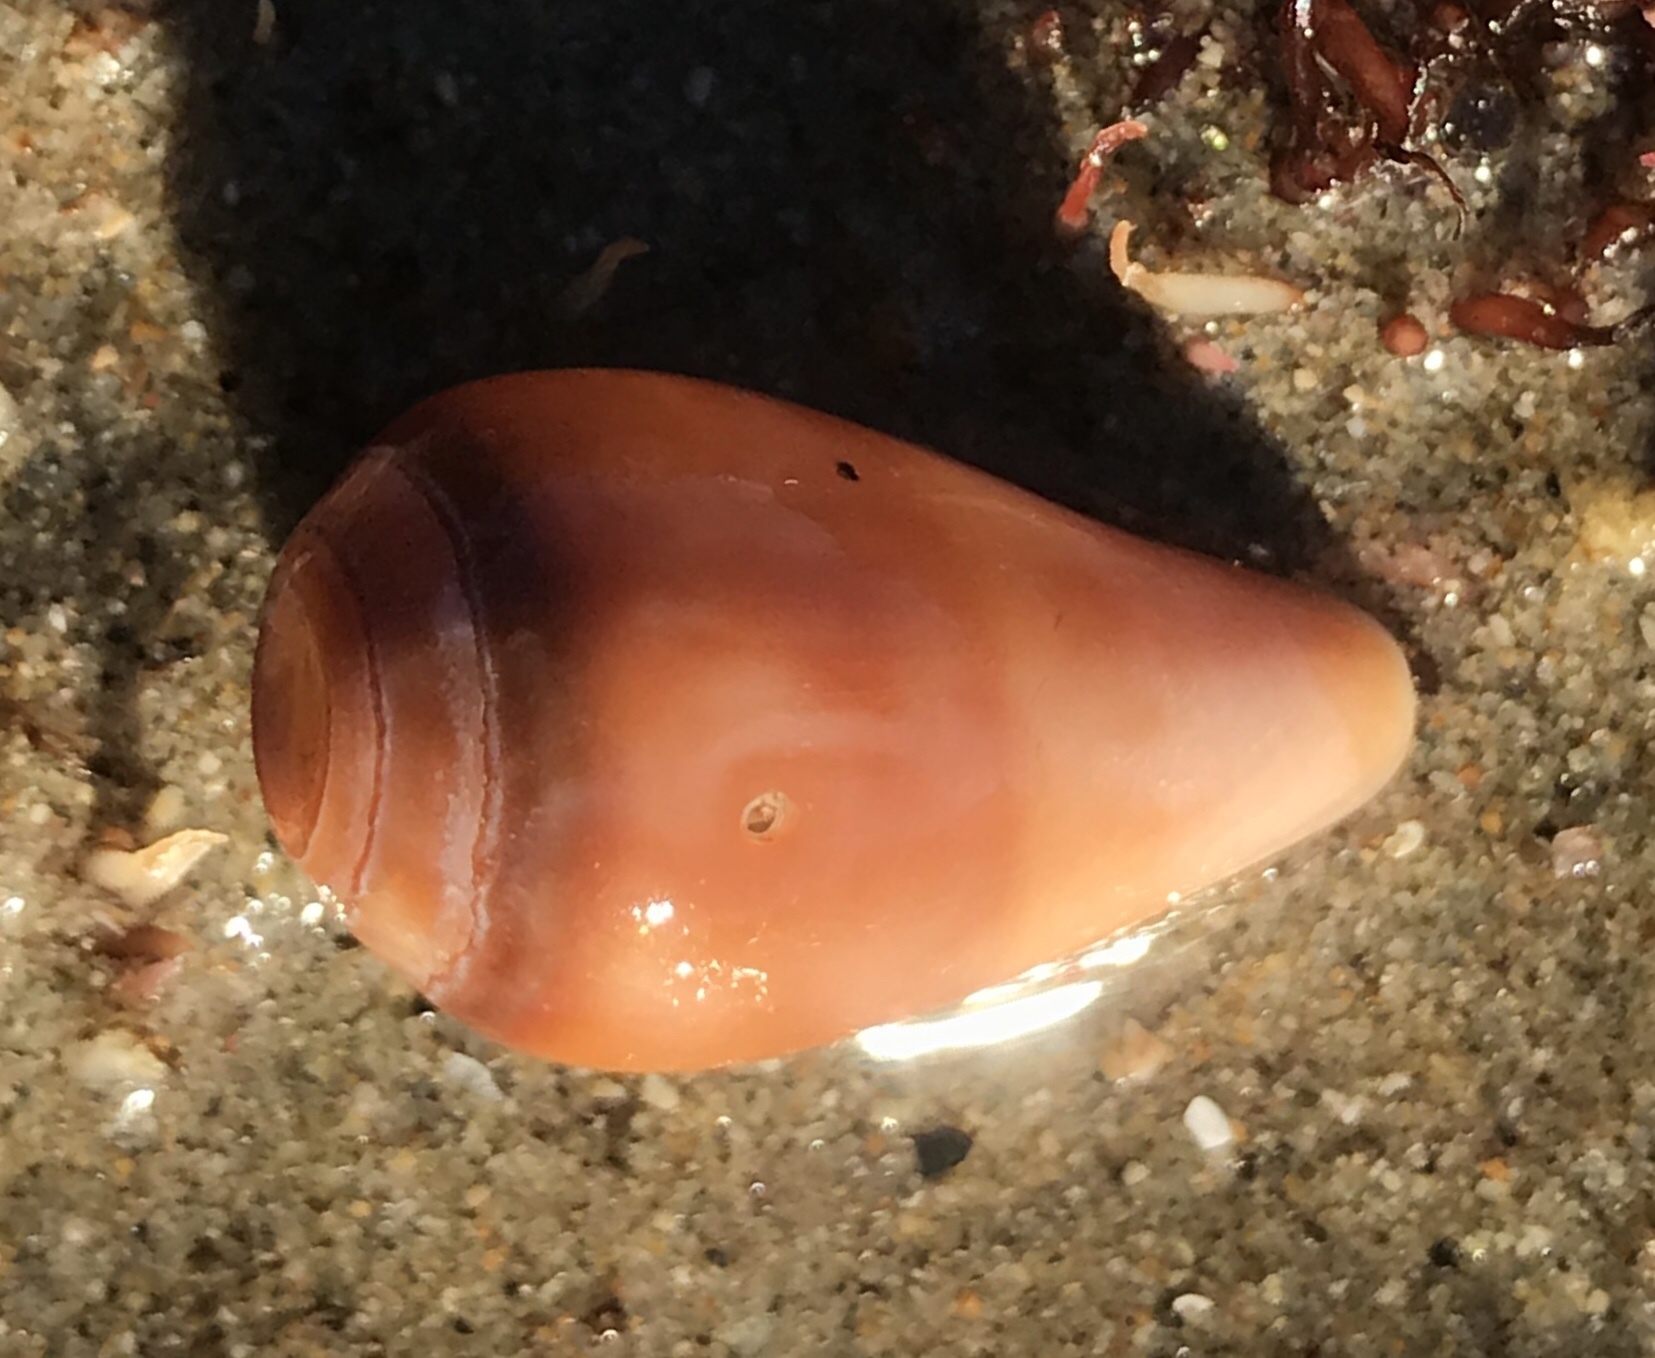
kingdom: Animalia
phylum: Mollusca
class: Gastropoda
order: Neogastropoda
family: Conidae
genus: Californiconus
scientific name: Californiconus californicus
